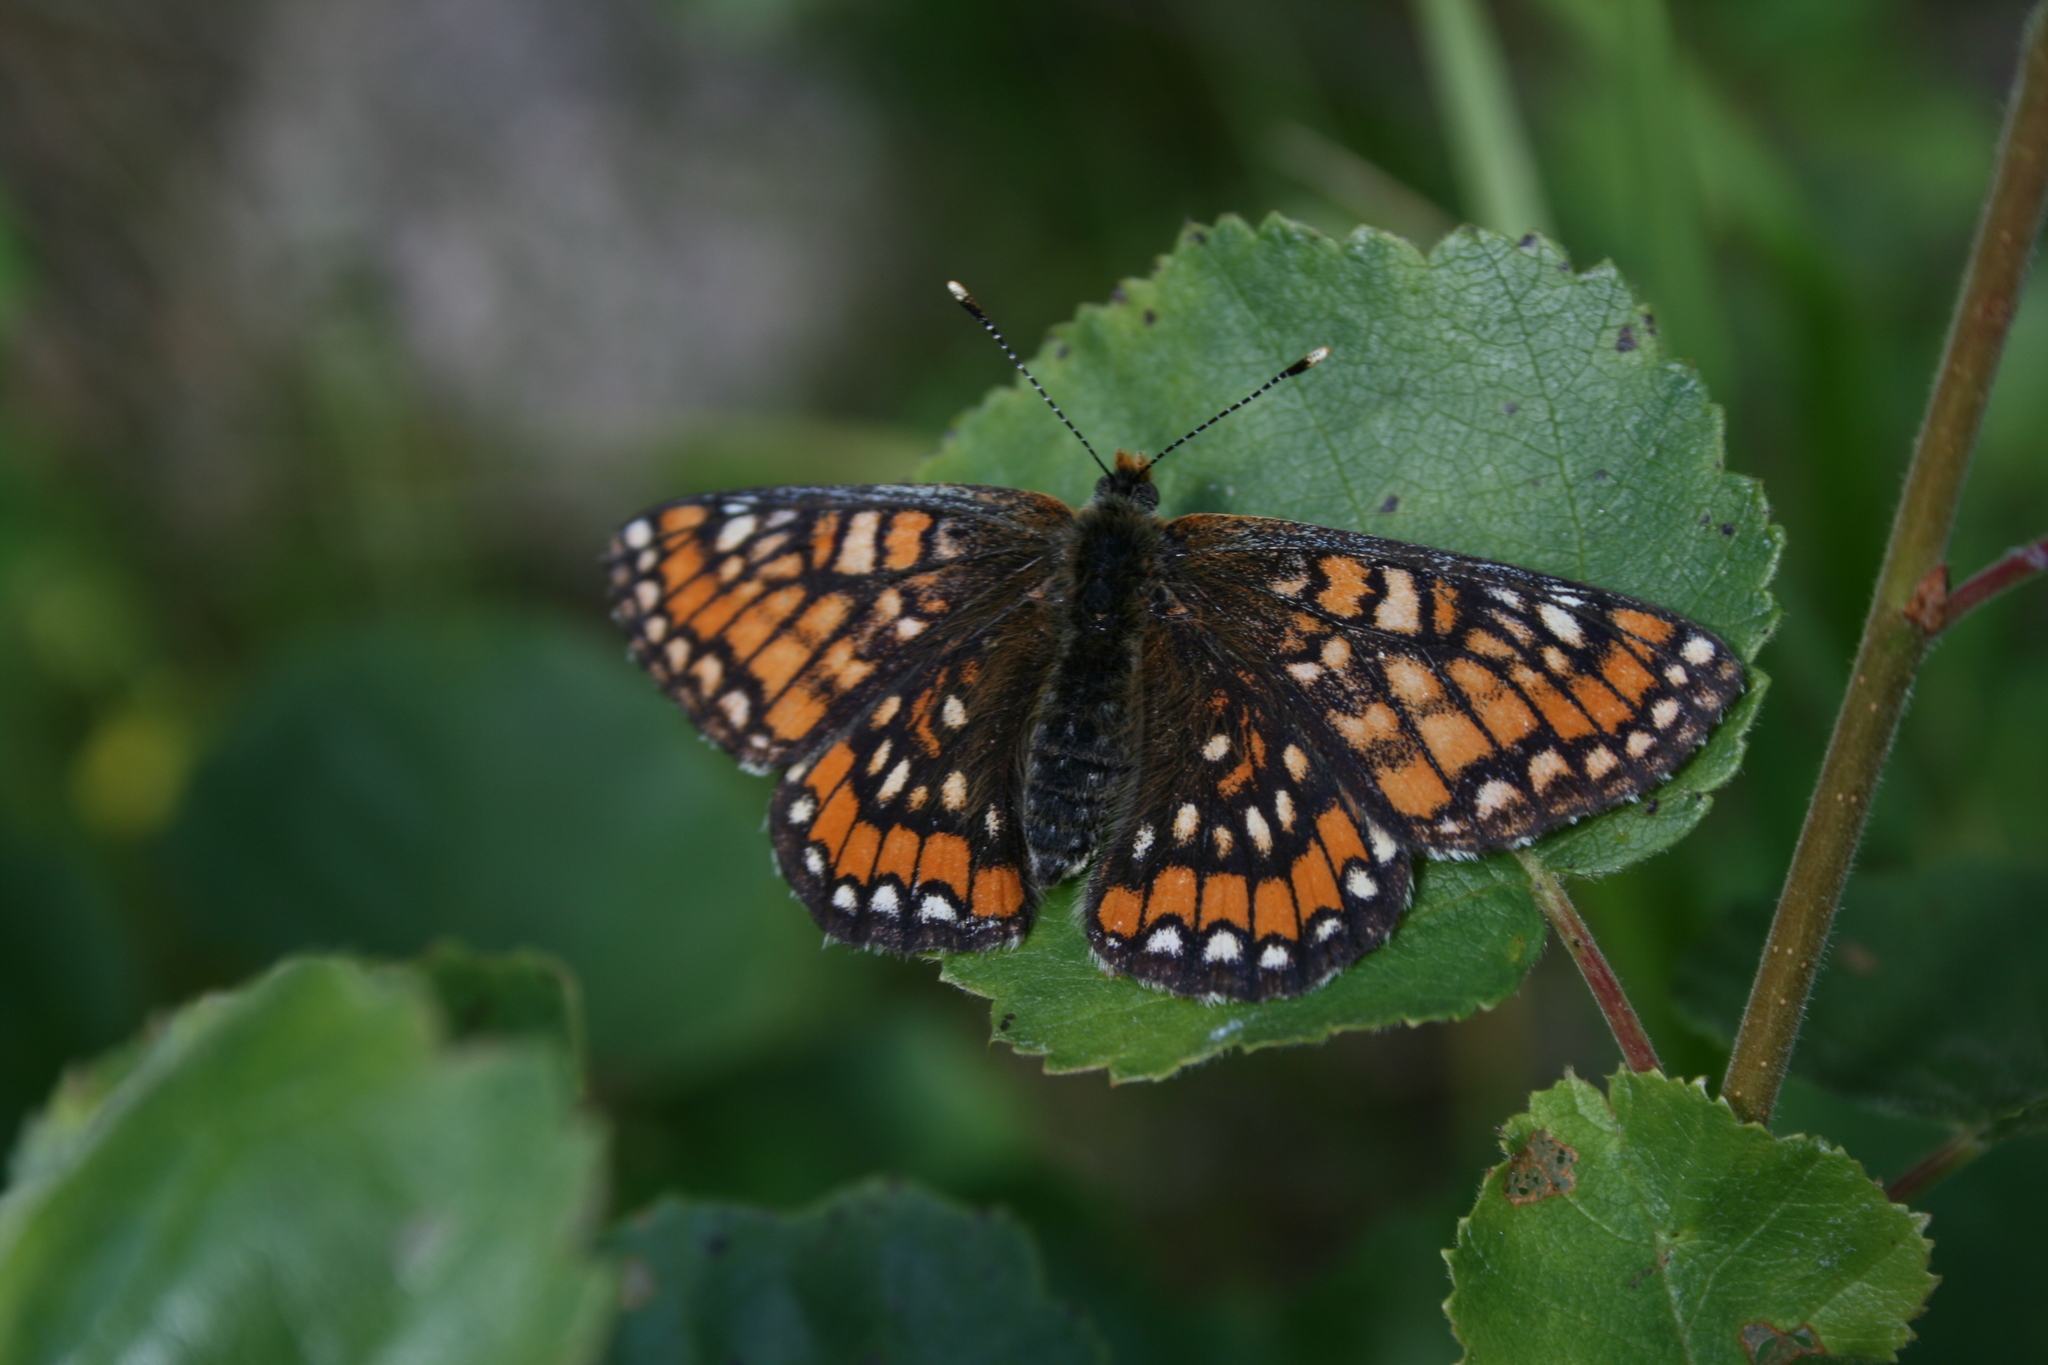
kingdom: Animalia
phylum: Arthropoda
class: Insecta
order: Lepidoptera
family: Nymphalidae
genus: Euphydryas
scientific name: Euphydryas maturna
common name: Scarce fritillary
